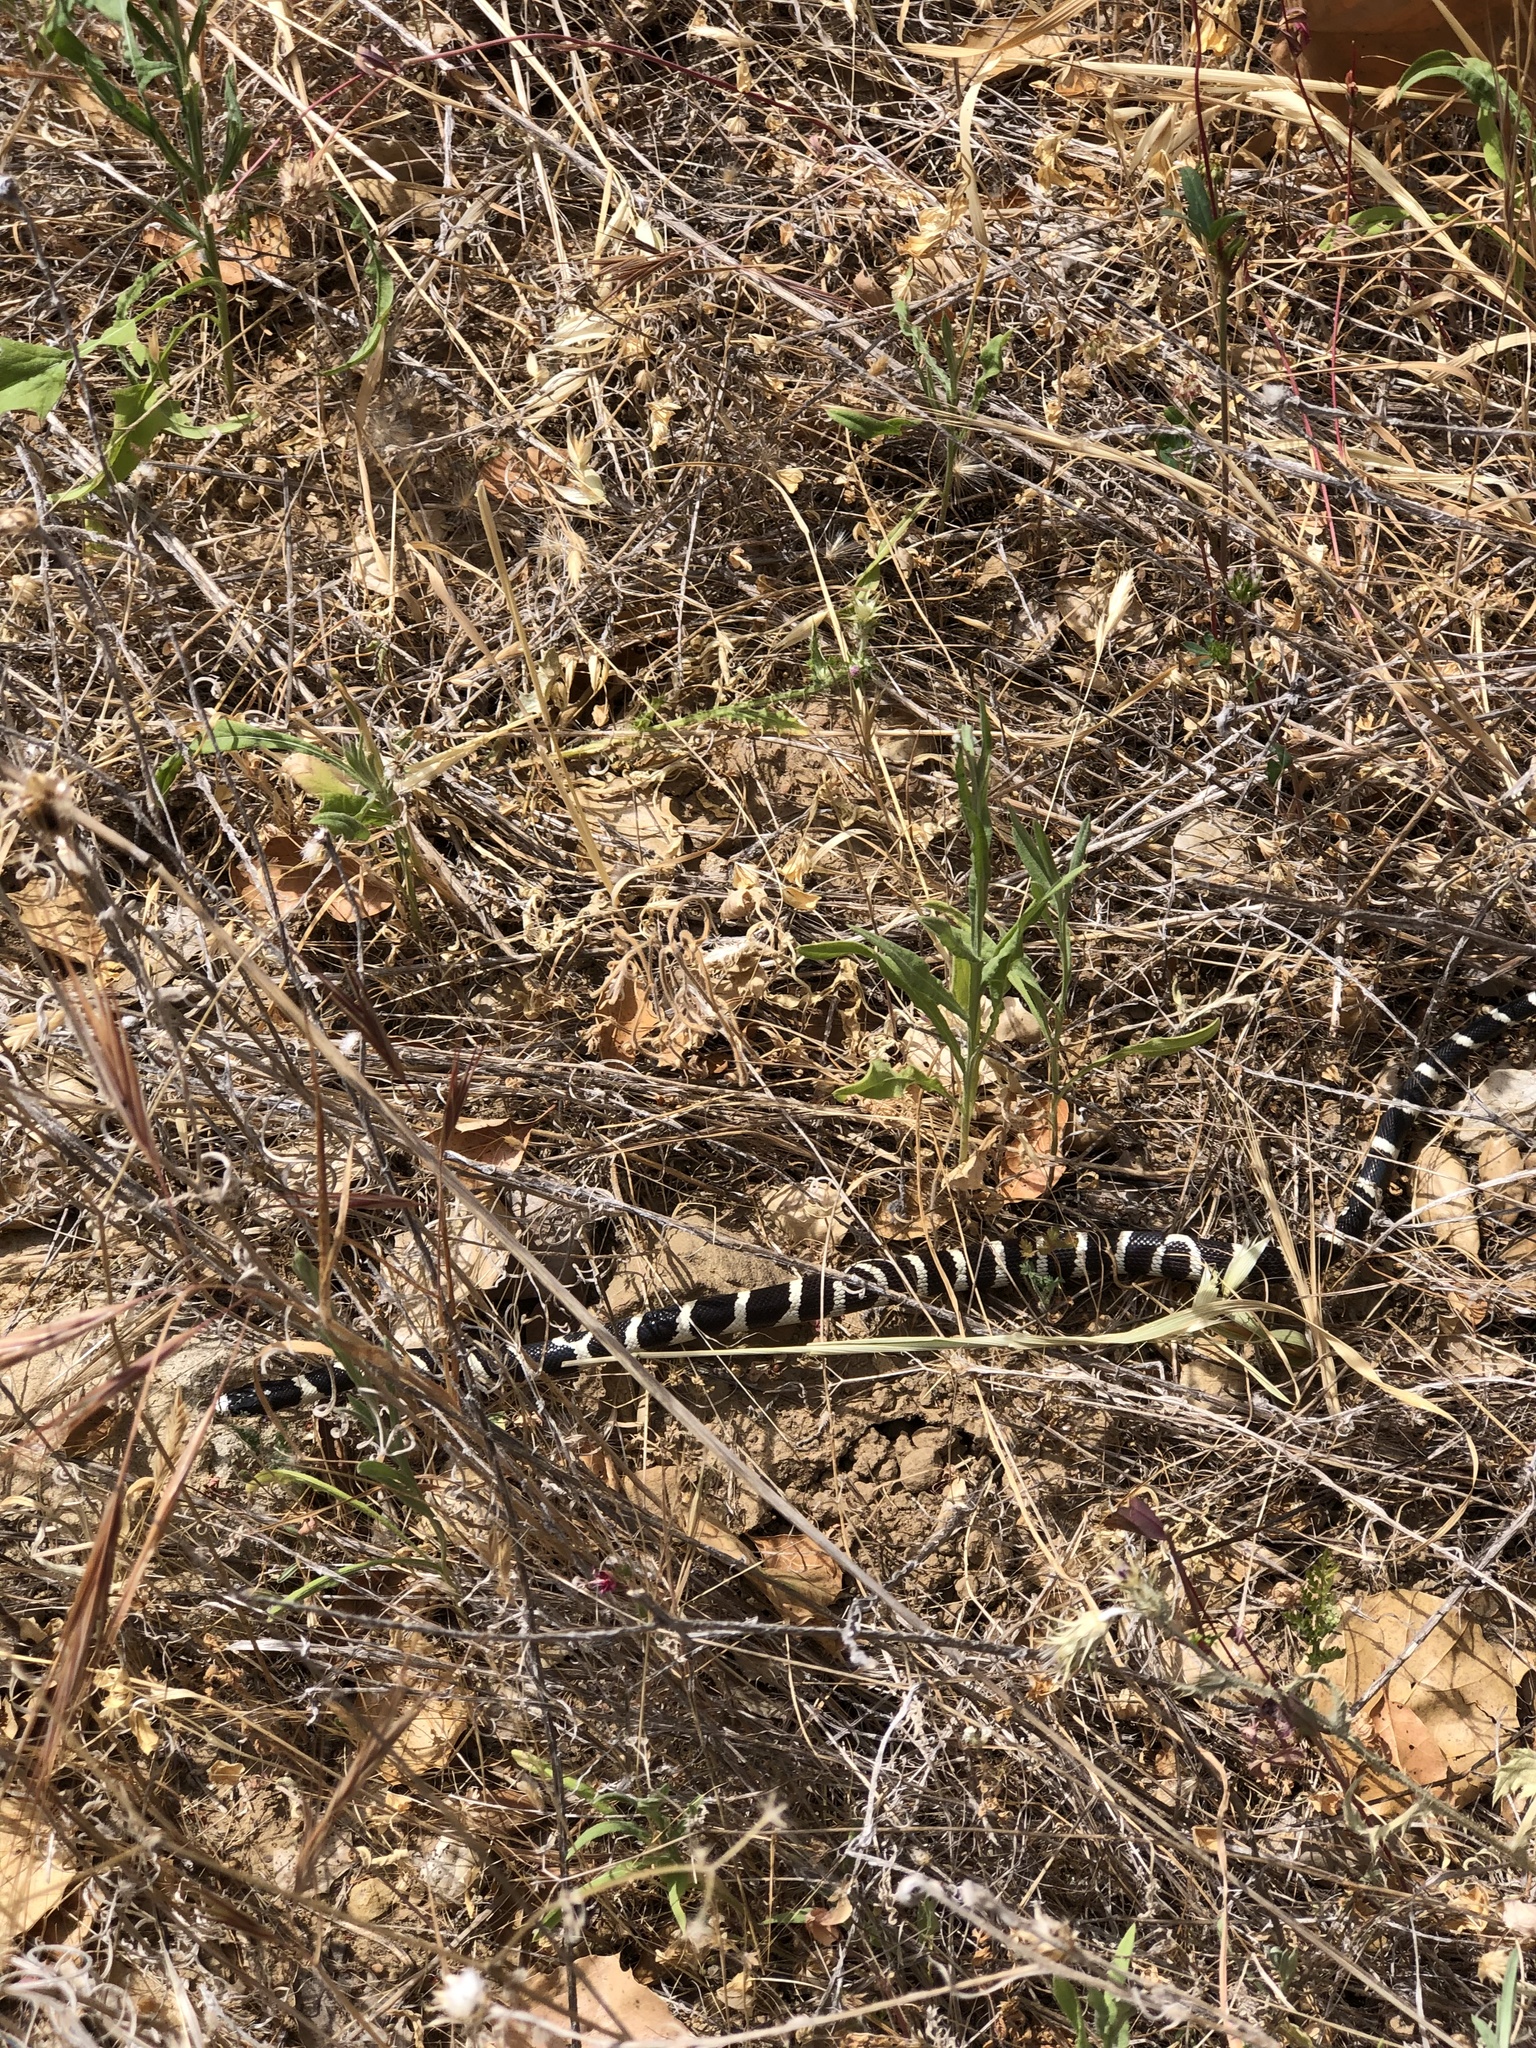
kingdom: Animalia
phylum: Chordata
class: Squamata
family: Colubridae
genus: Lampropeltis
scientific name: Lampropeltis californiae
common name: California kingsnake
